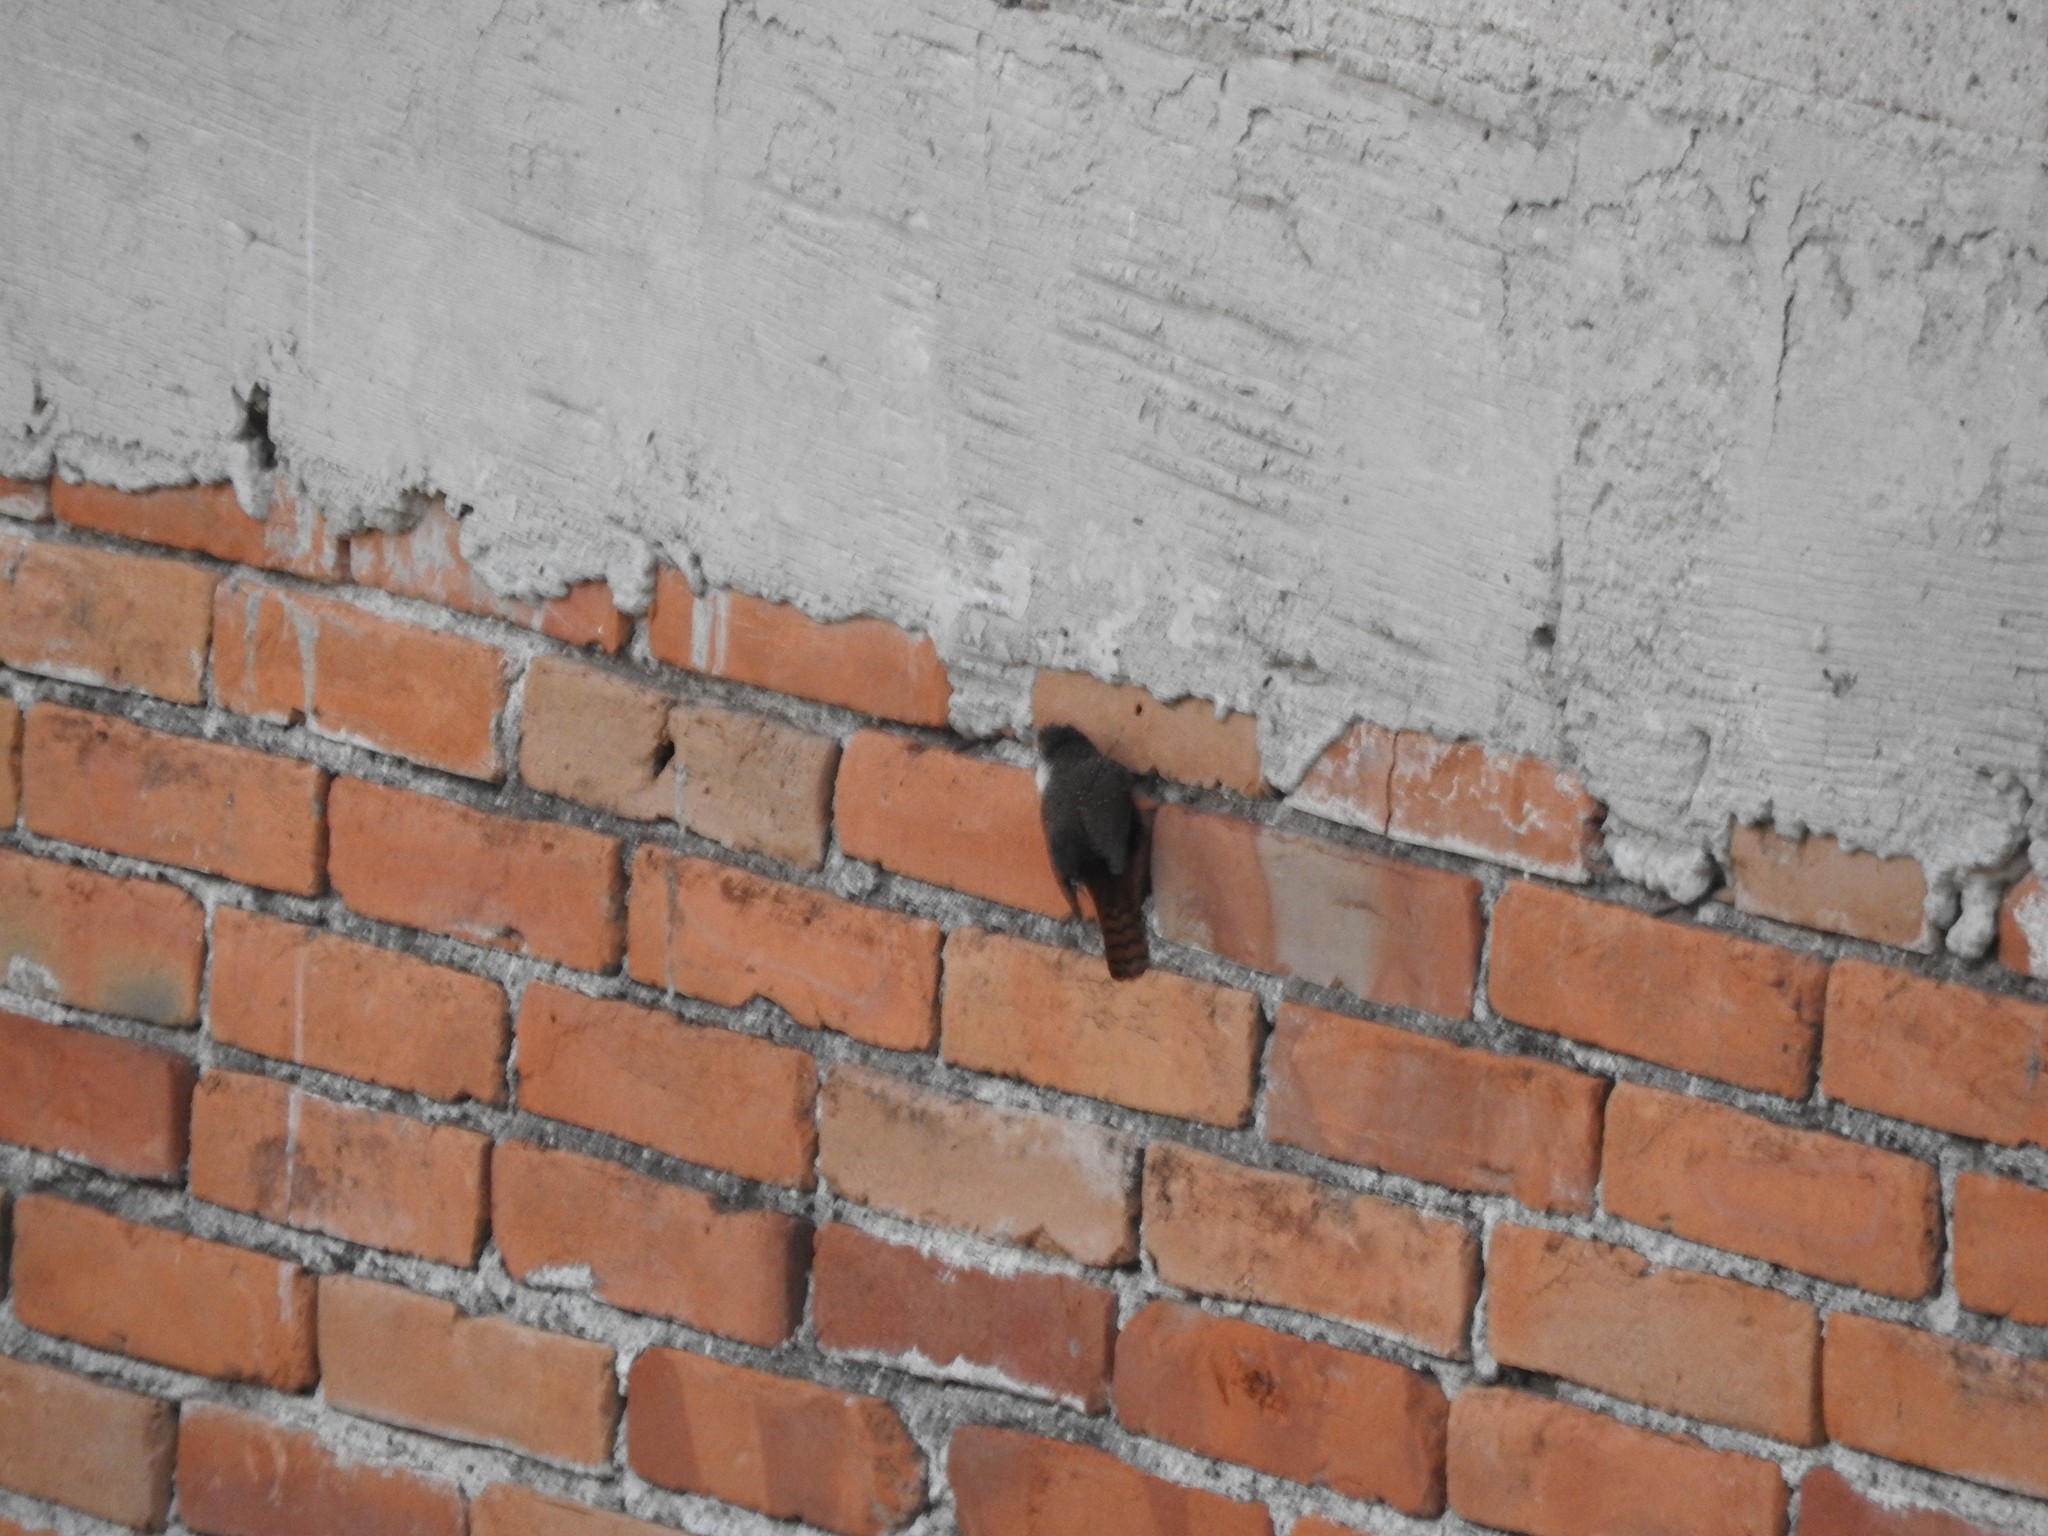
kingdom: Animalia
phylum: Chordata
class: Aves
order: Passeriformes
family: Troglodytidae
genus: Catherpes
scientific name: Catherpes mexicanus
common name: Canyon wren
